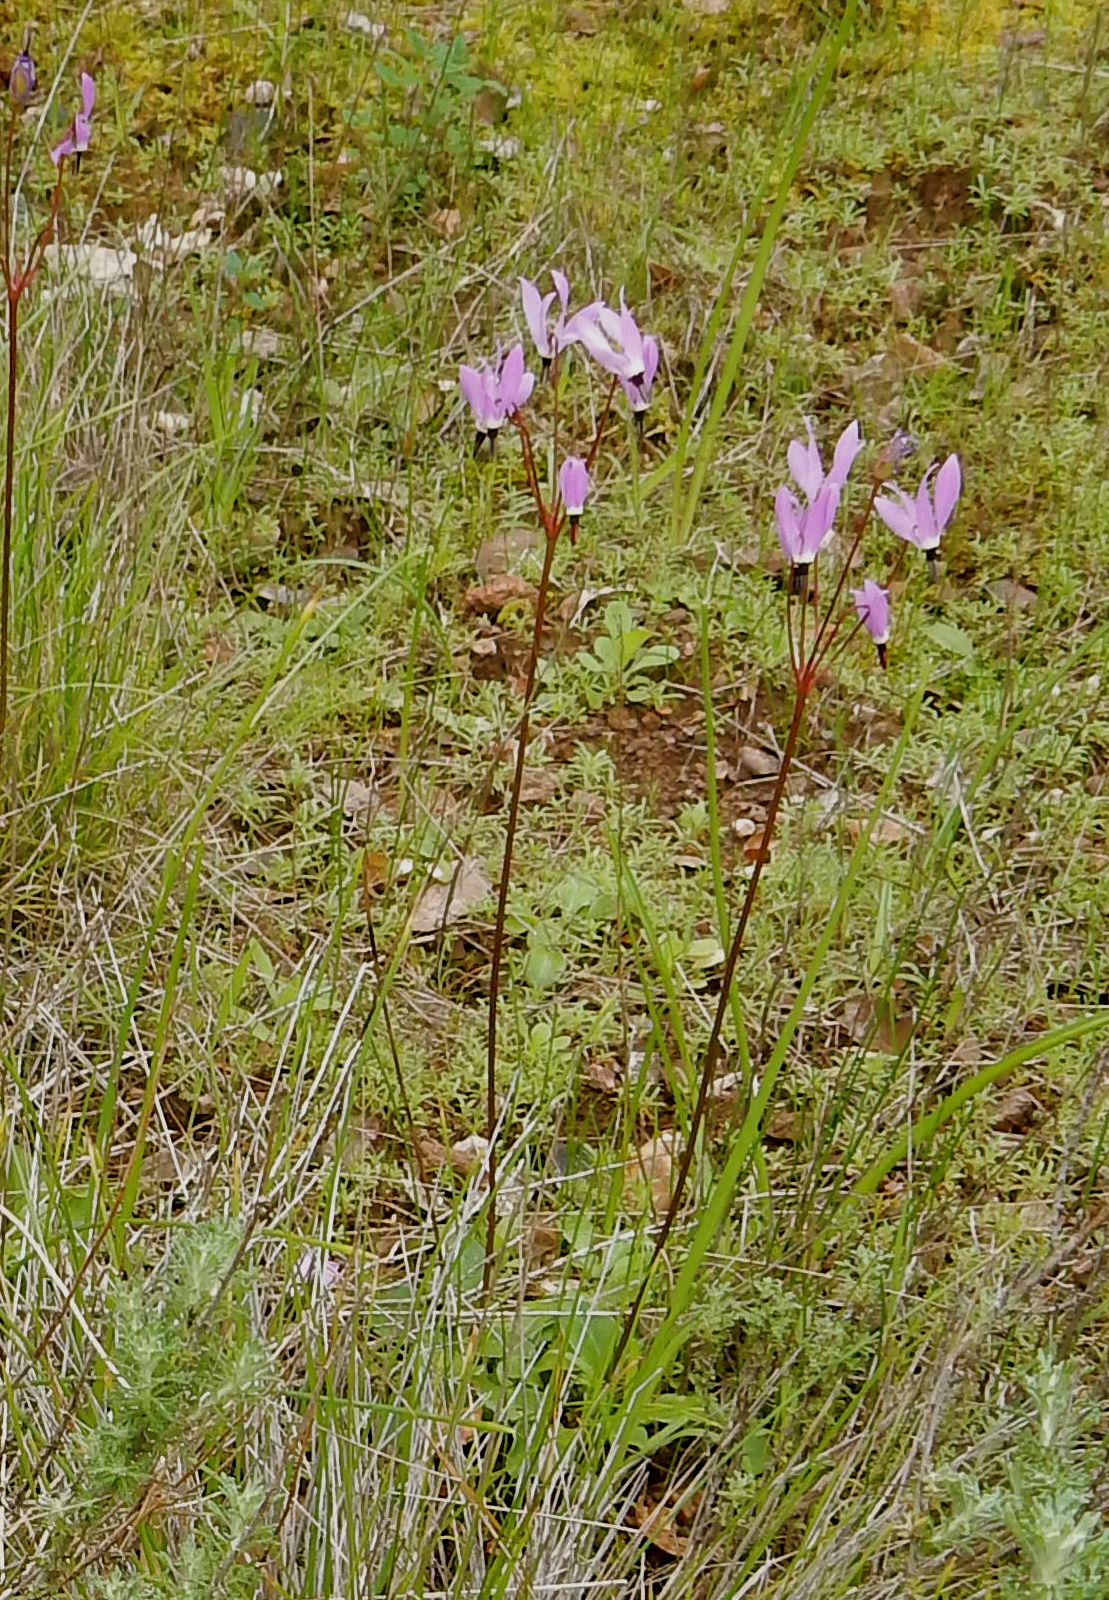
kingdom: Plantae
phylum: Tracheophyta
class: Magnoliopsida
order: Ericales
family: Primulaceae
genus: Dodecatheon
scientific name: Dodecatheon hendersonii
